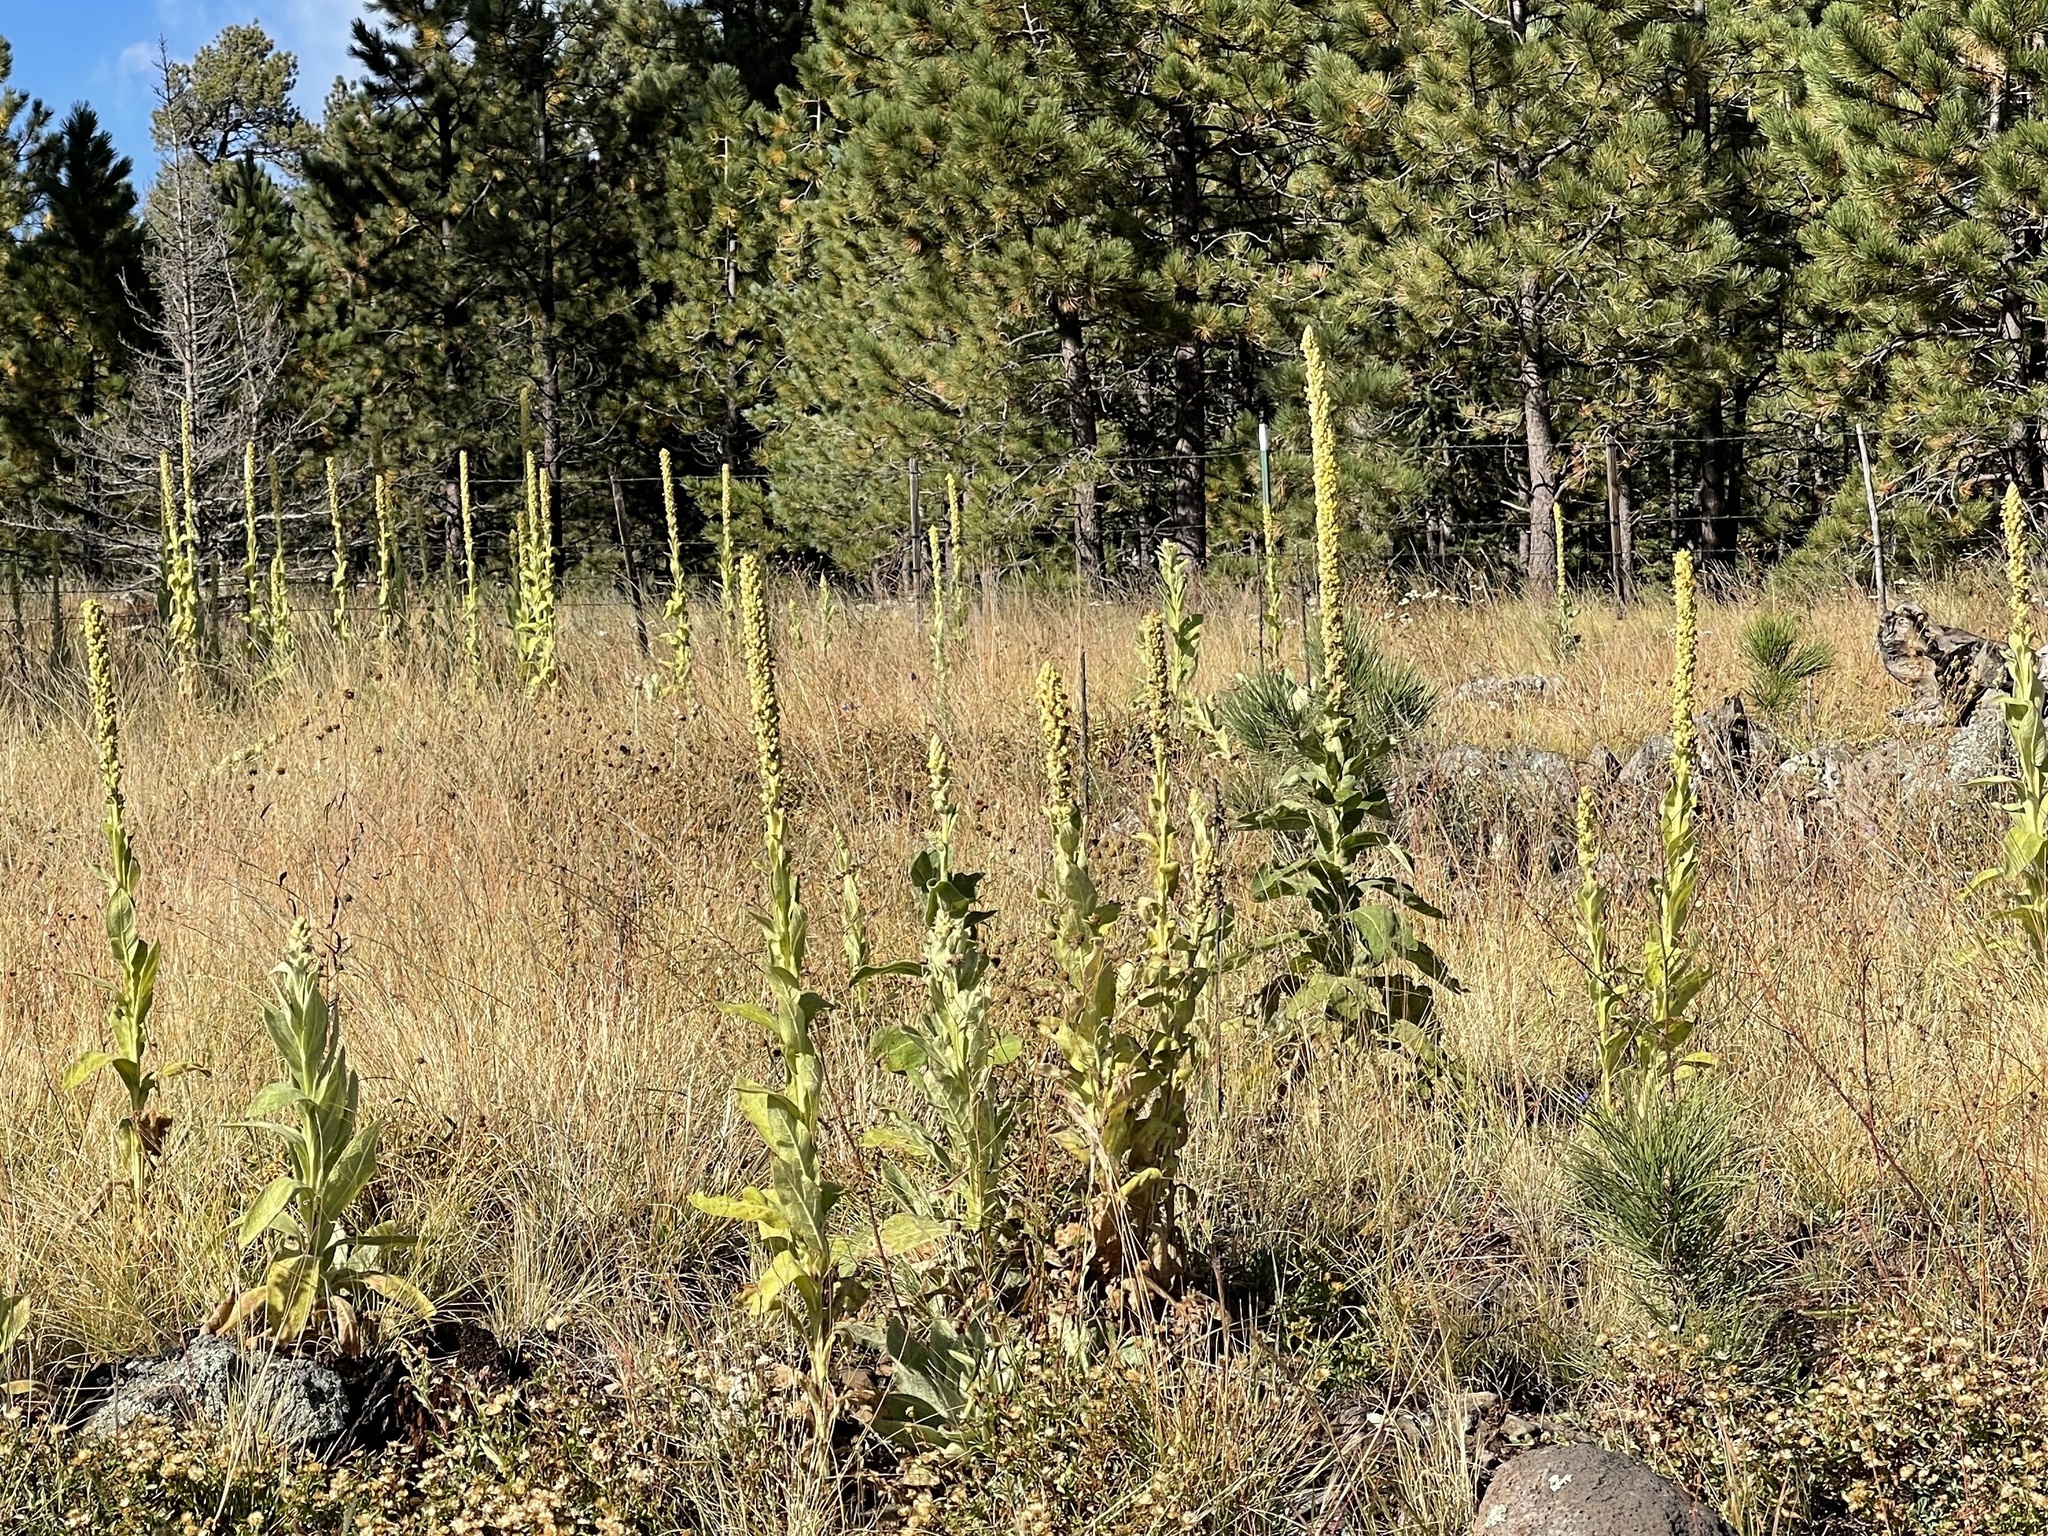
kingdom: Plantae
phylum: Tracheophyta
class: Magnoliopsida
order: Lamiales
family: Scrophulariaceae
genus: Verbascum
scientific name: Verbascum thapsus
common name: Common mullein
